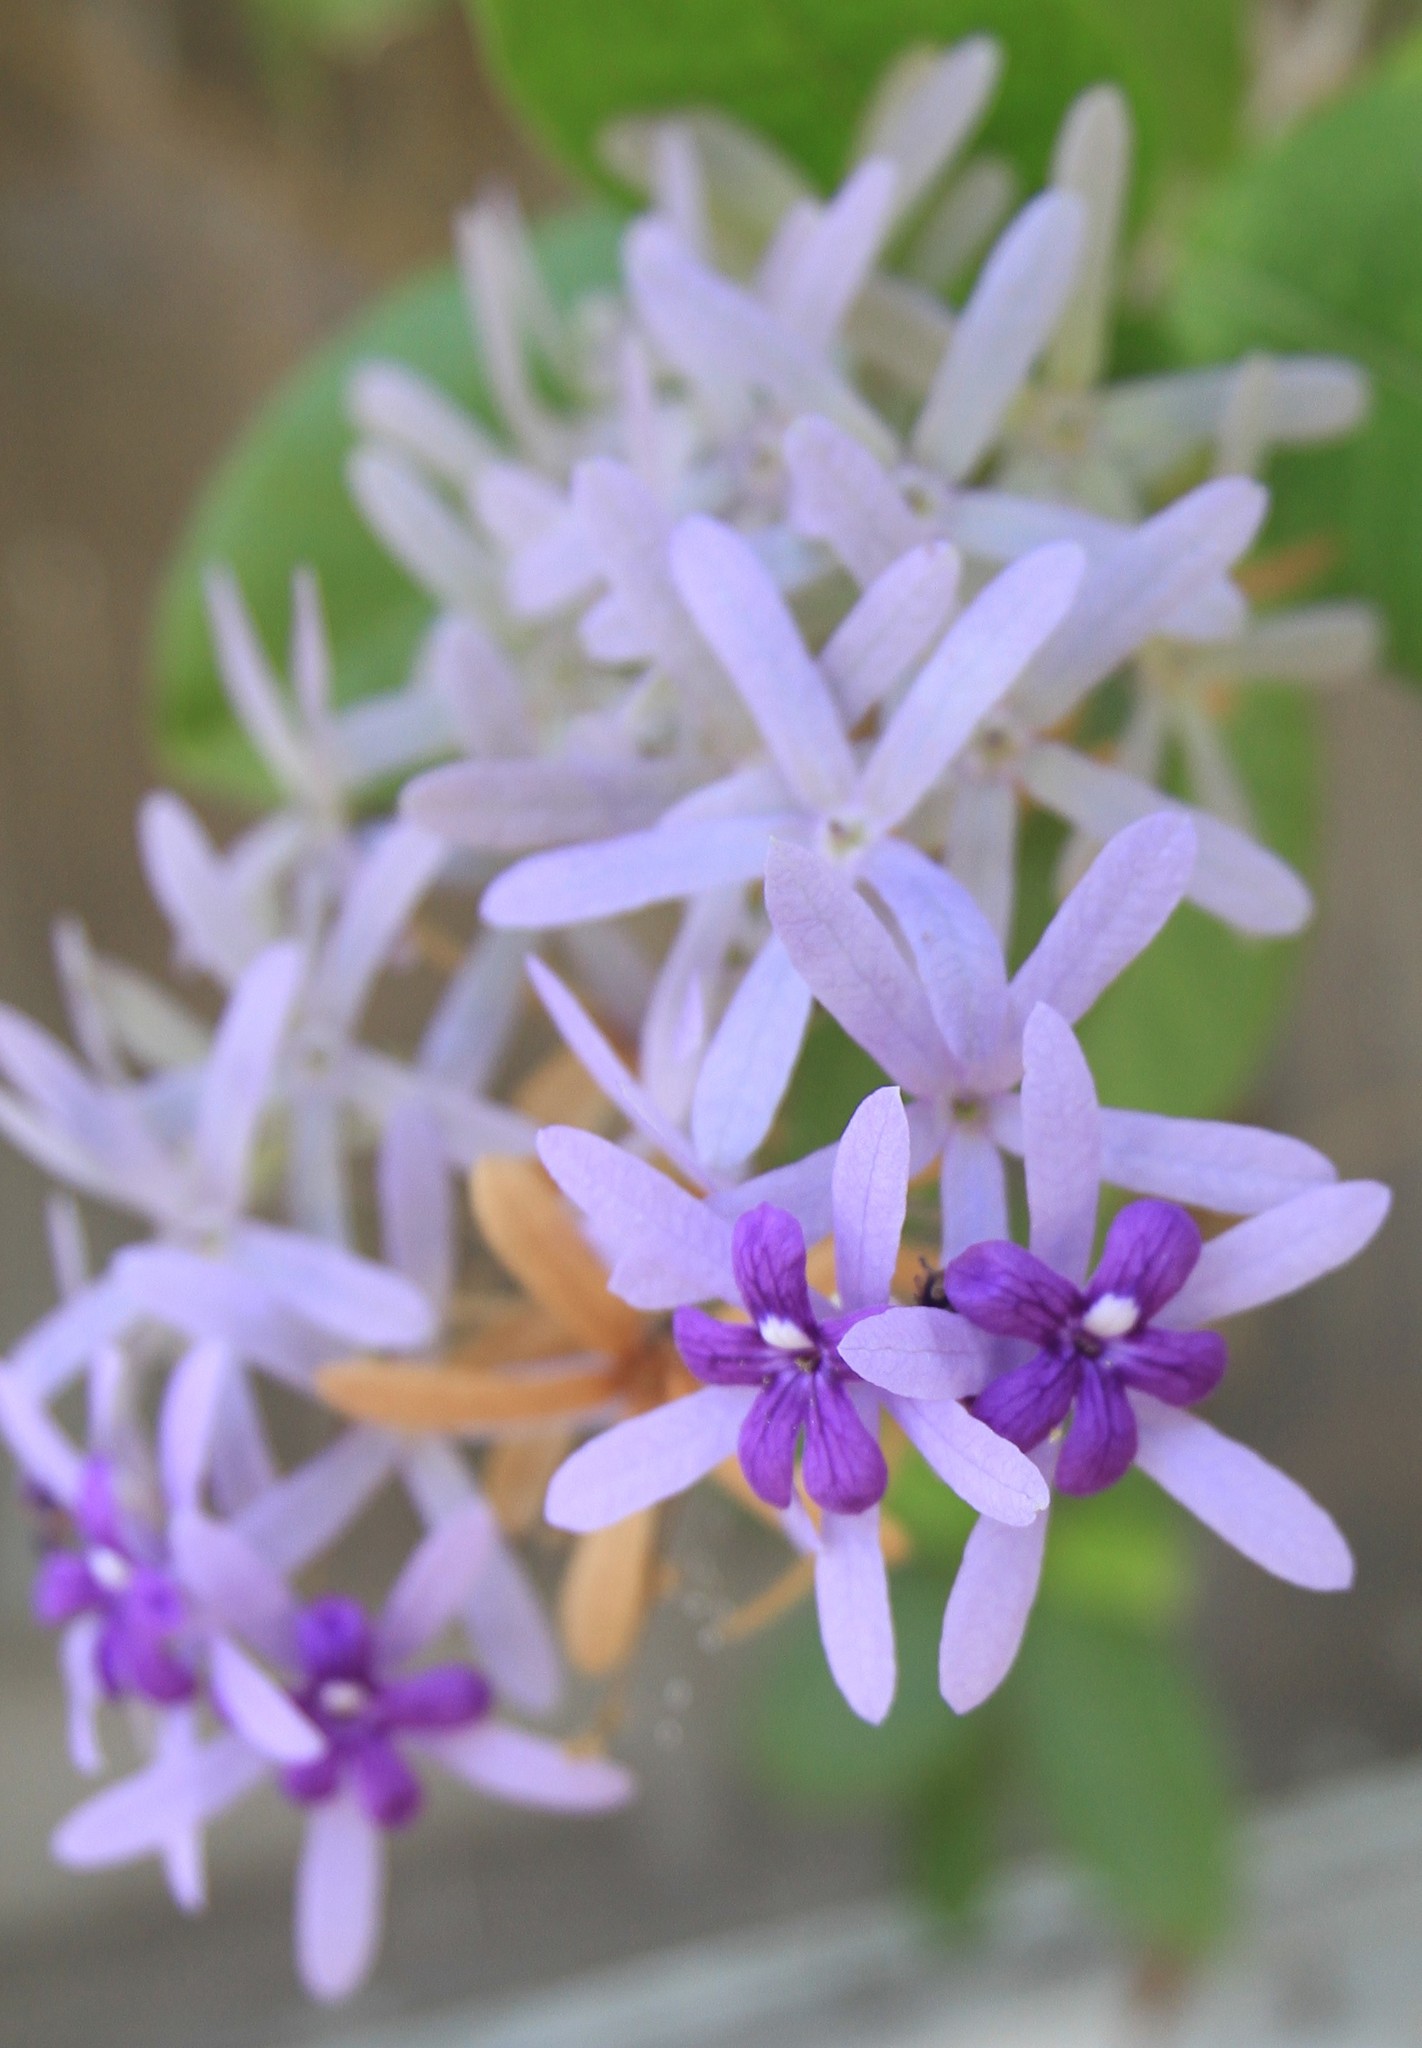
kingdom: Plantae
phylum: Tracheophyta
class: Magnoliopsida
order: Lamiales
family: Verbenaceae
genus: Petrea
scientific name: Petrea volubilis
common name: Queen's-wreath
